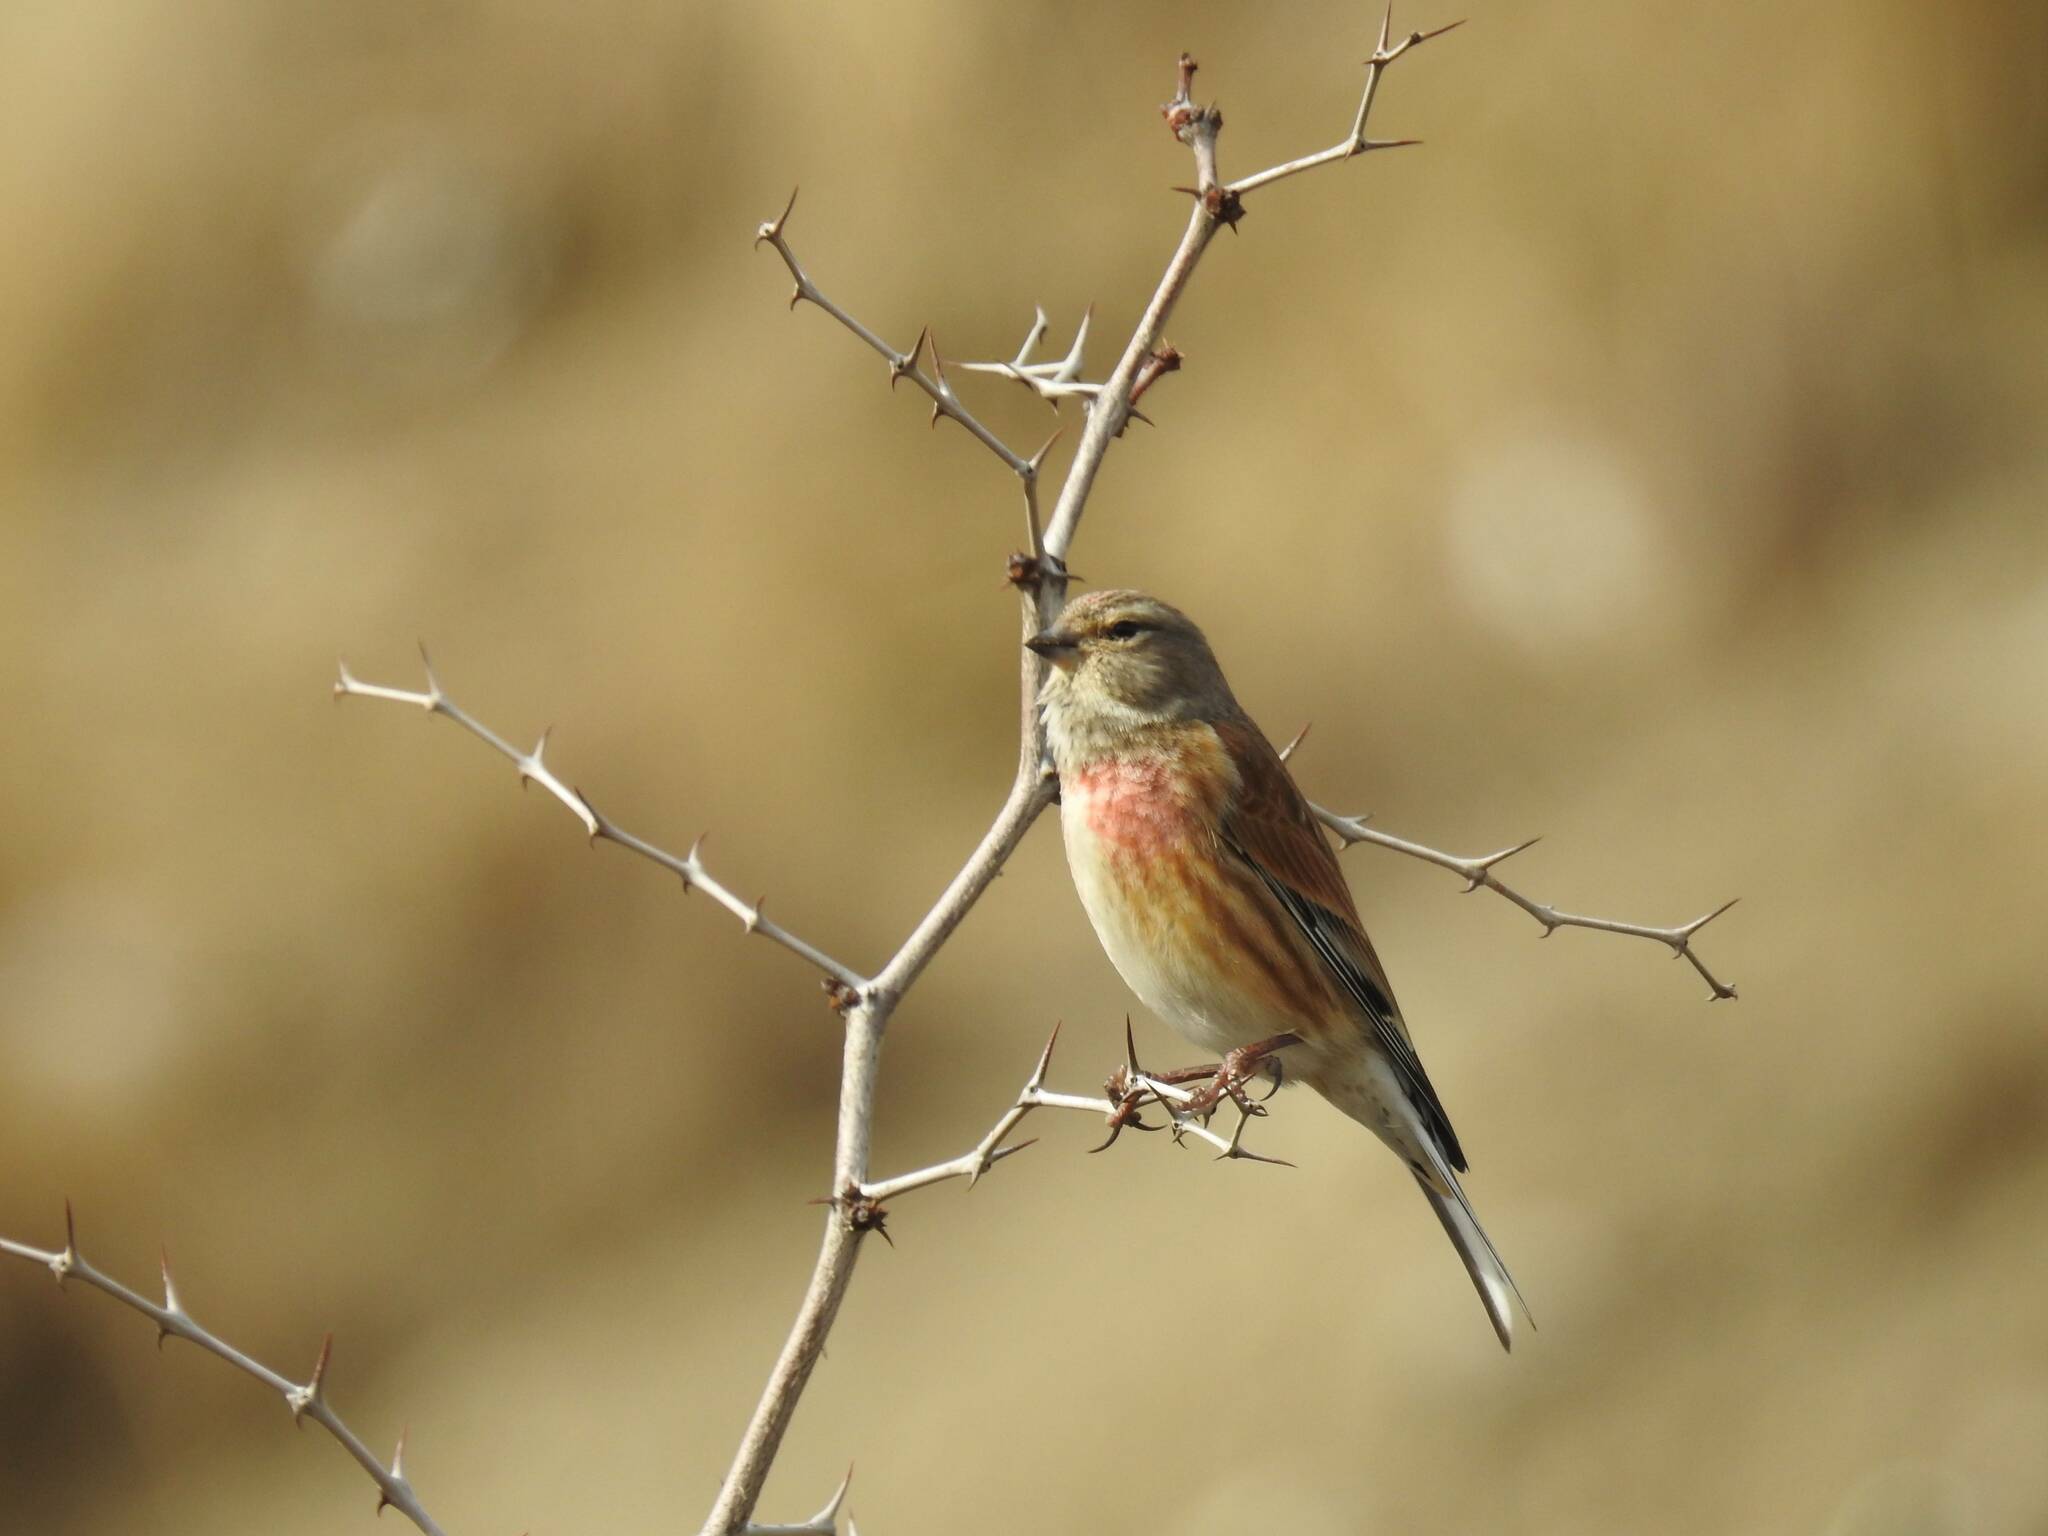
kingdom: Animalia
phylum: Chordata
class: Aves
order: Passeriformes
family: Fringillidae
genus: Linaria
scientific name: Linaria cannabina
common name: Common linnet
